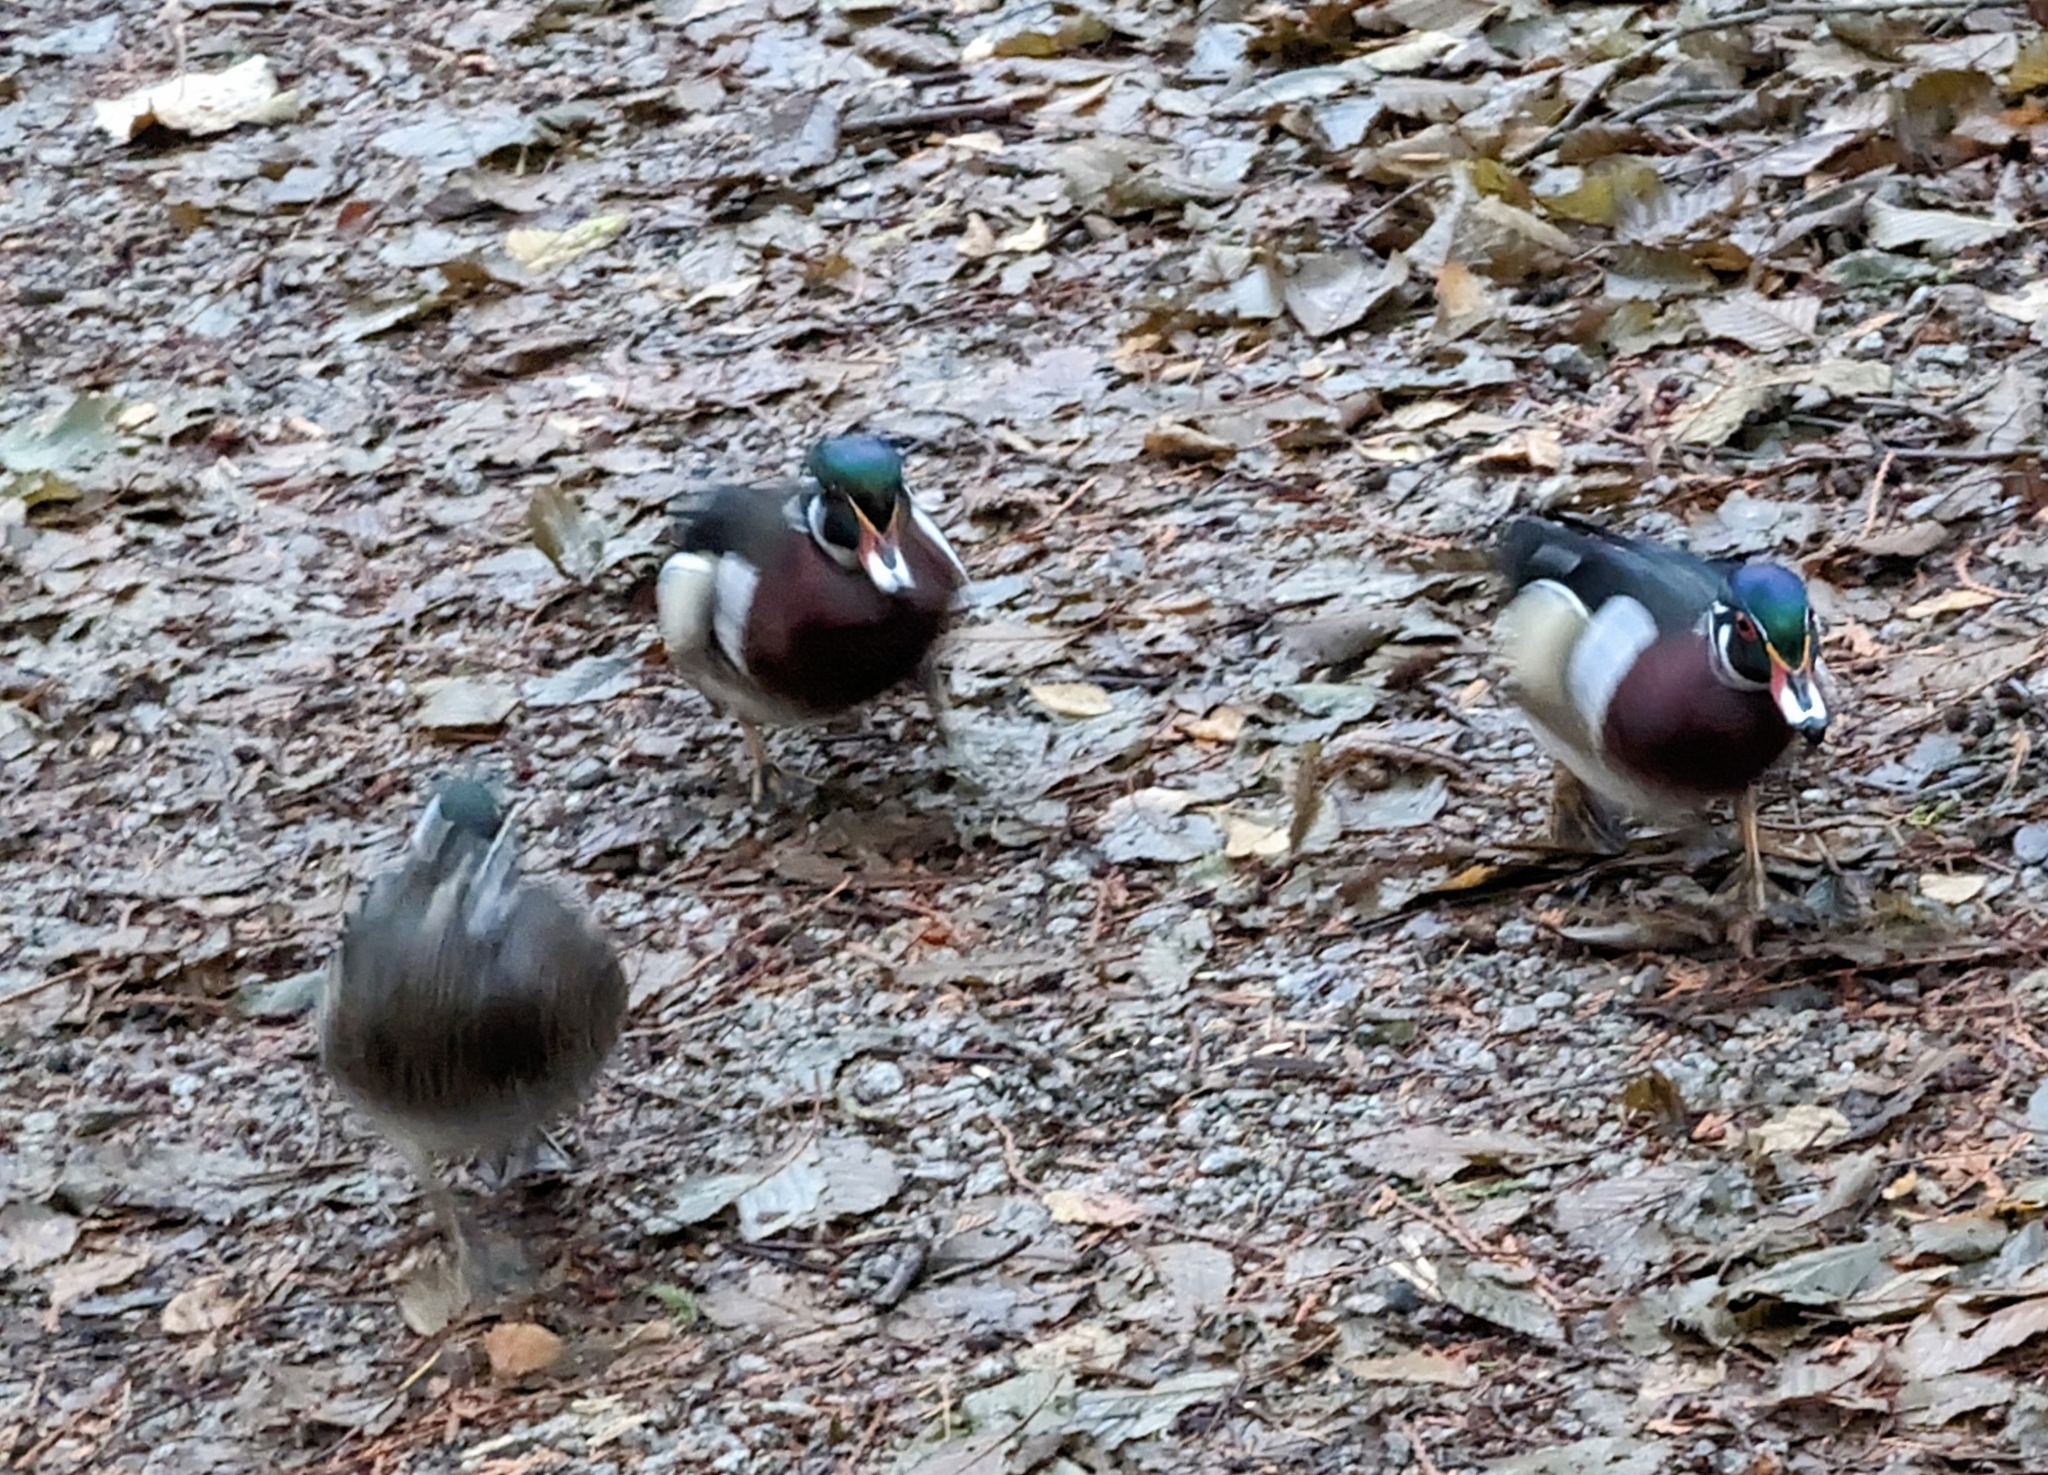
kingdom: Animalia
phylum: Chordata
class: Aves
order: Anseriformes
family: Anatidae
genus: Aix
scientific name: Aix sponsa
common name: Wood duck
